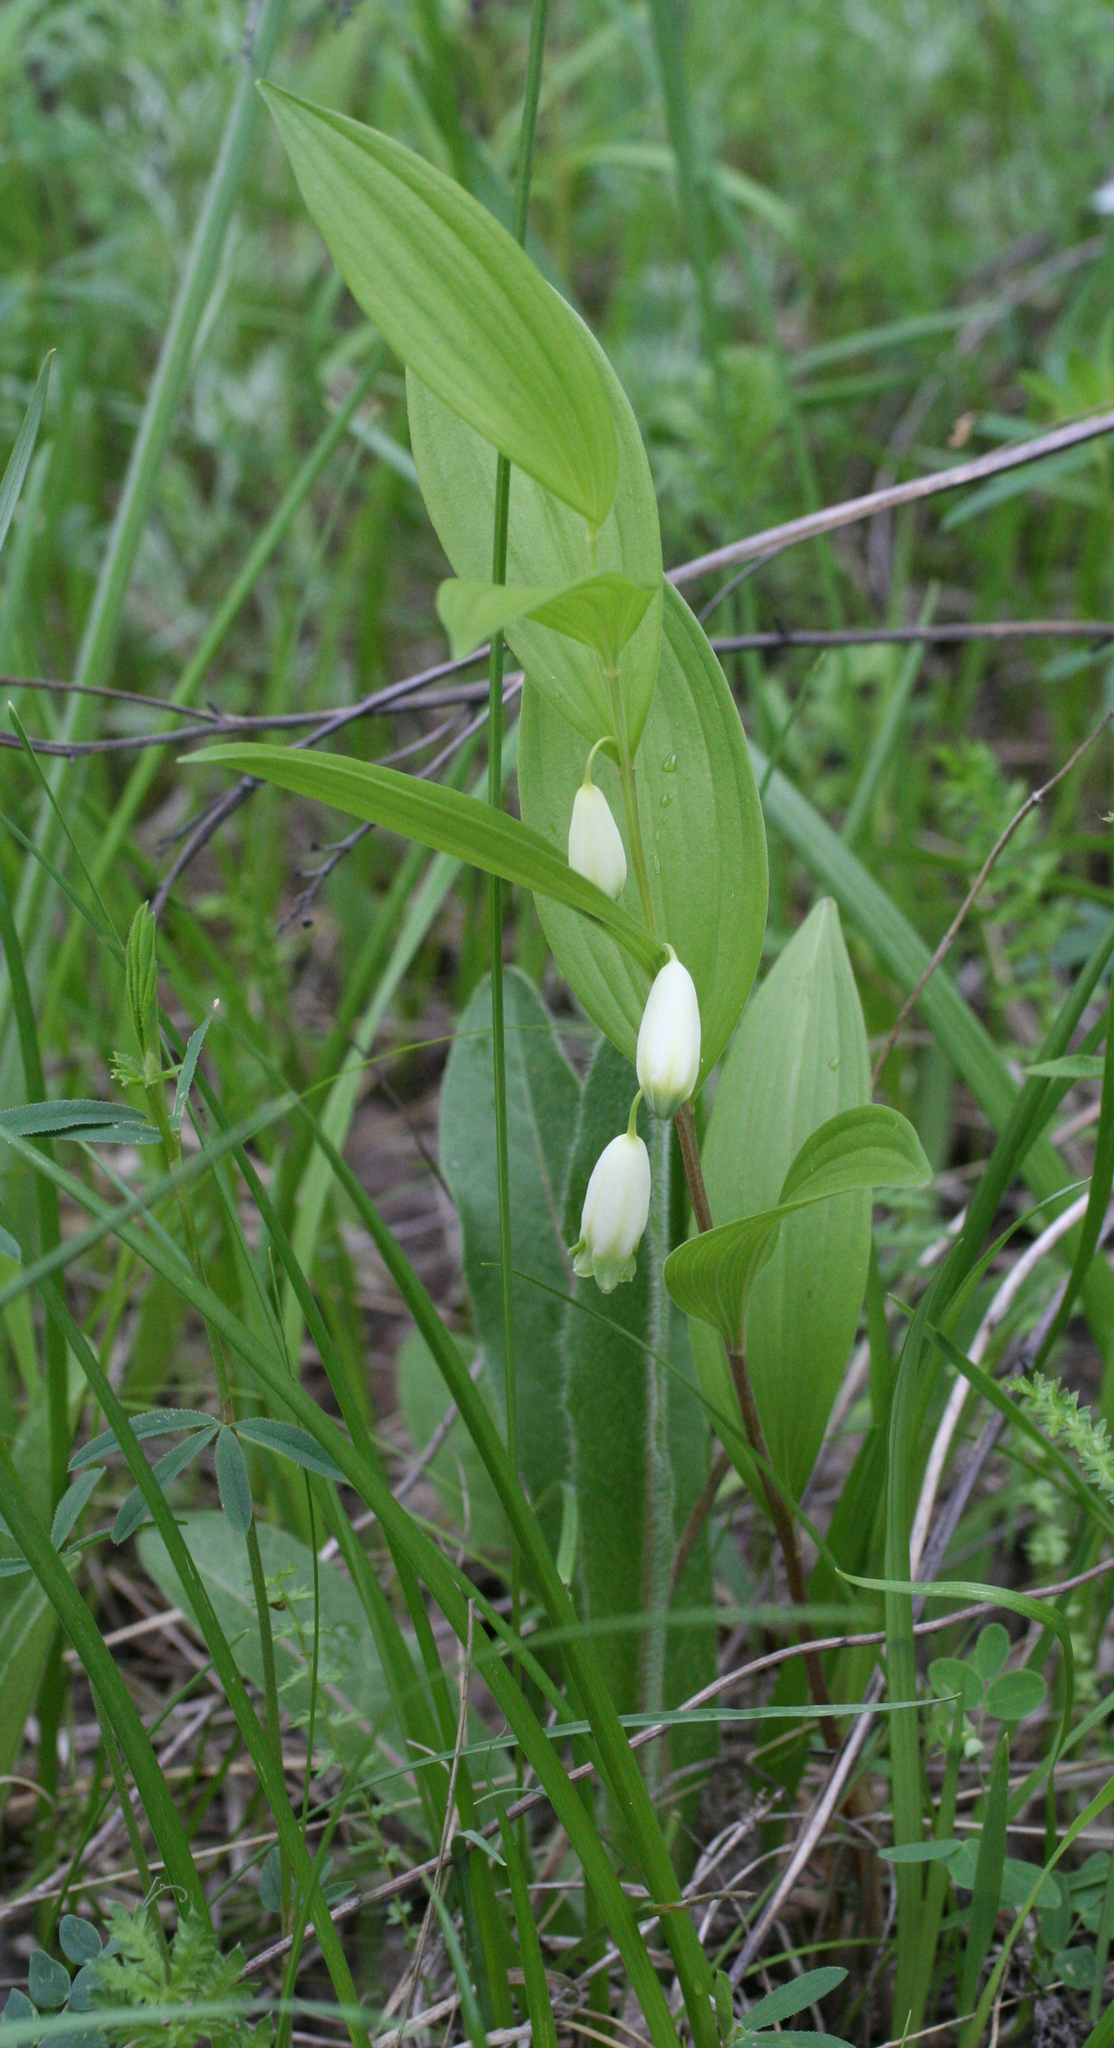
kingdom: Plantae
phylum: Tracheophyta
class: Liliopsida
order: Asparagales
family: Asparagaceae
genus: Polygonatum
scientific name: Polygonatum humile
